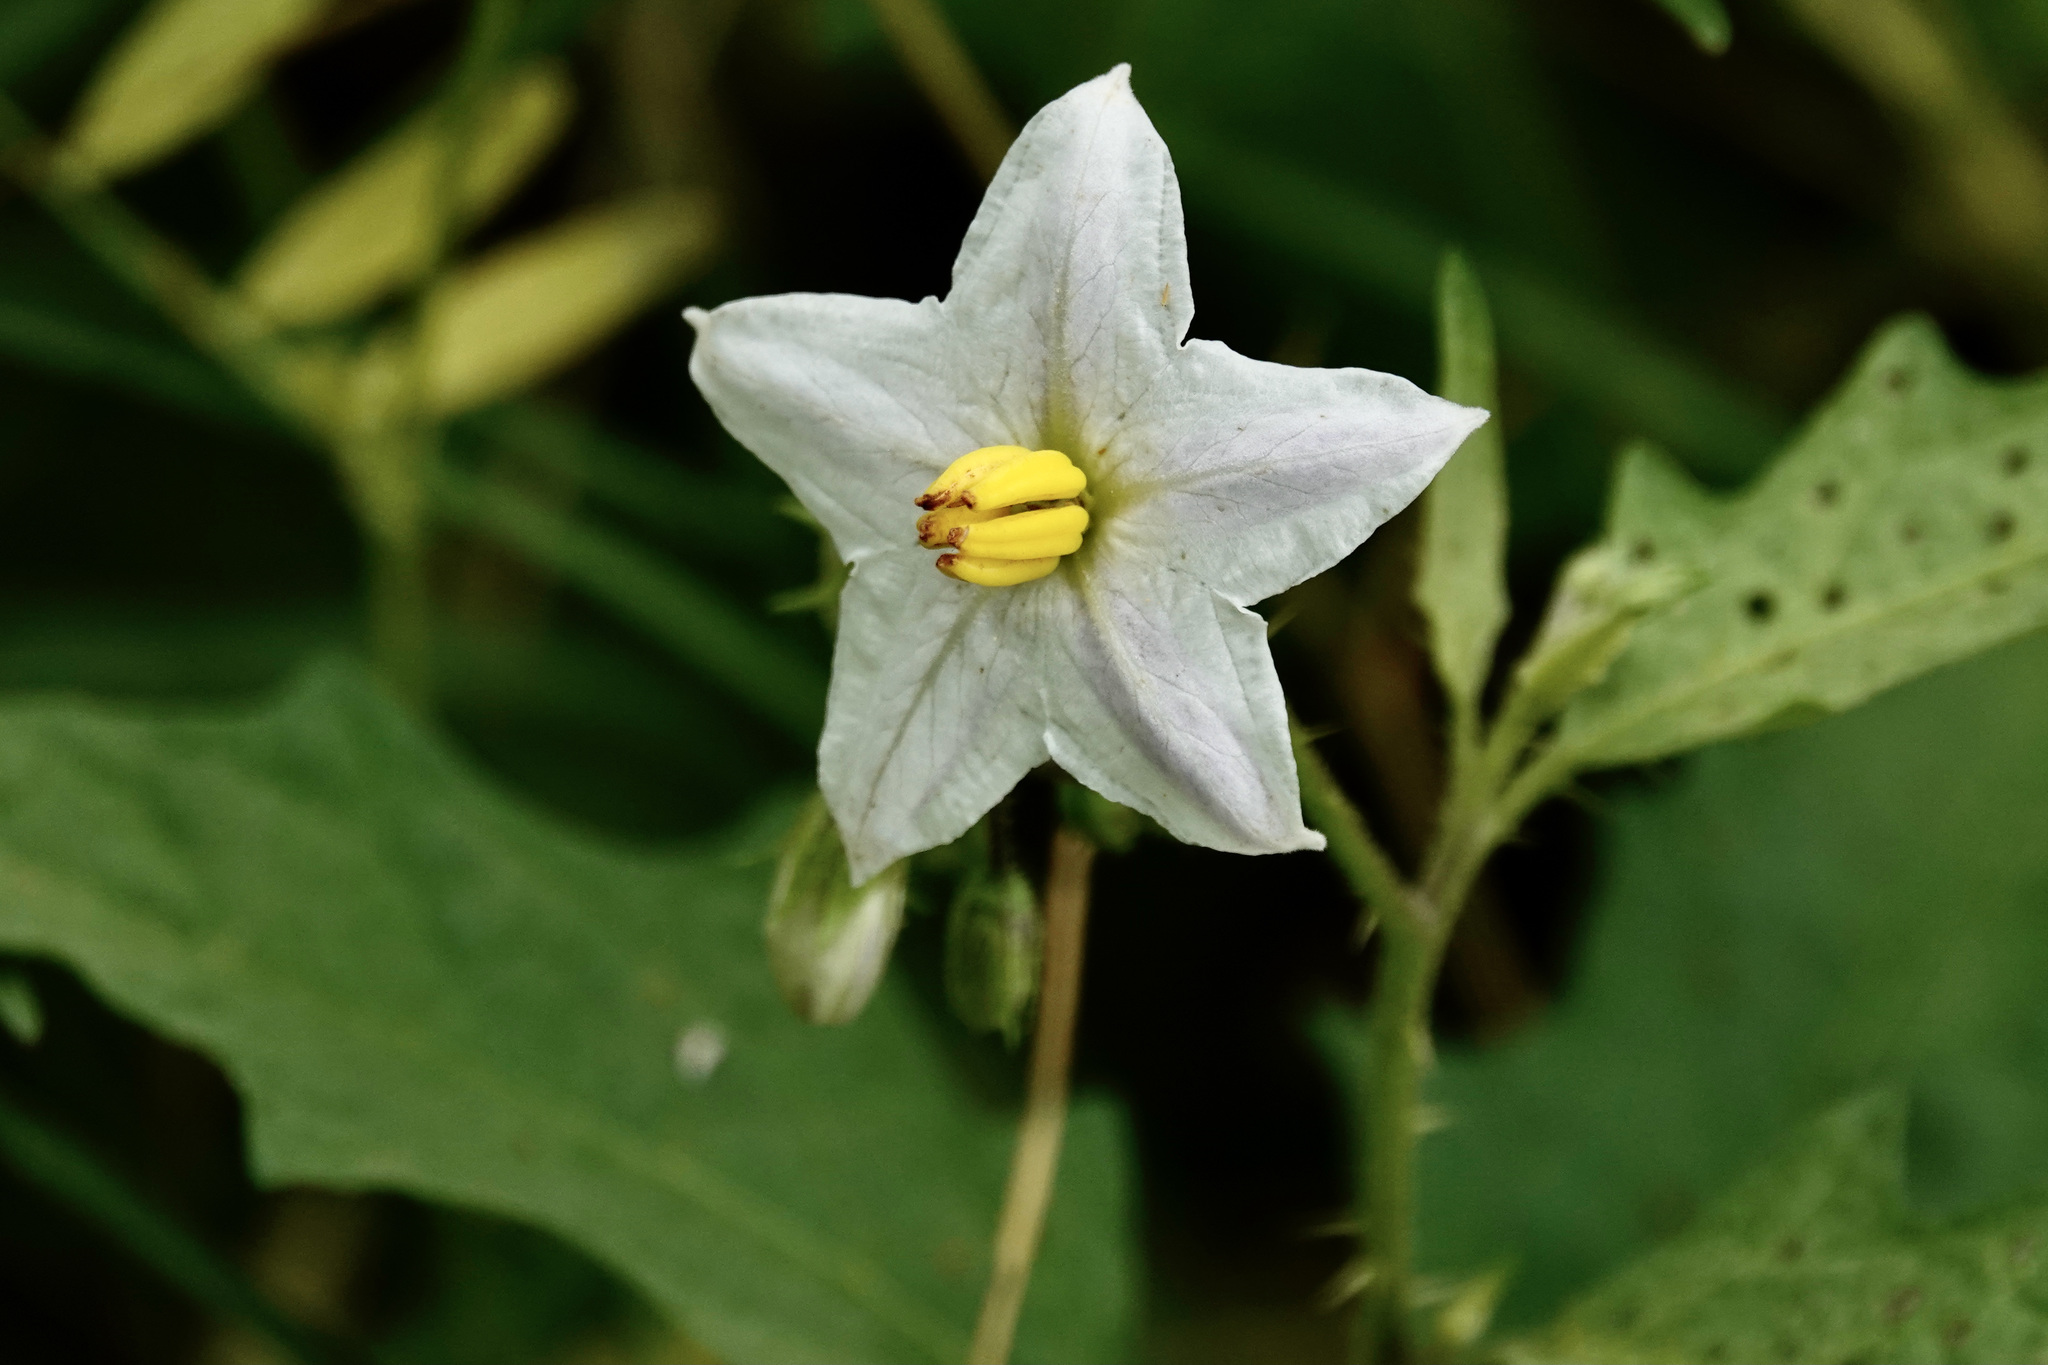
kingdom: Plantae
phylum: Tracheophyta
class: Magnoliopsida
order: Solanales
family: Solanaceae
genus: Solanum
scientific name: Solanum carolinense
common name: Horse-nettle
